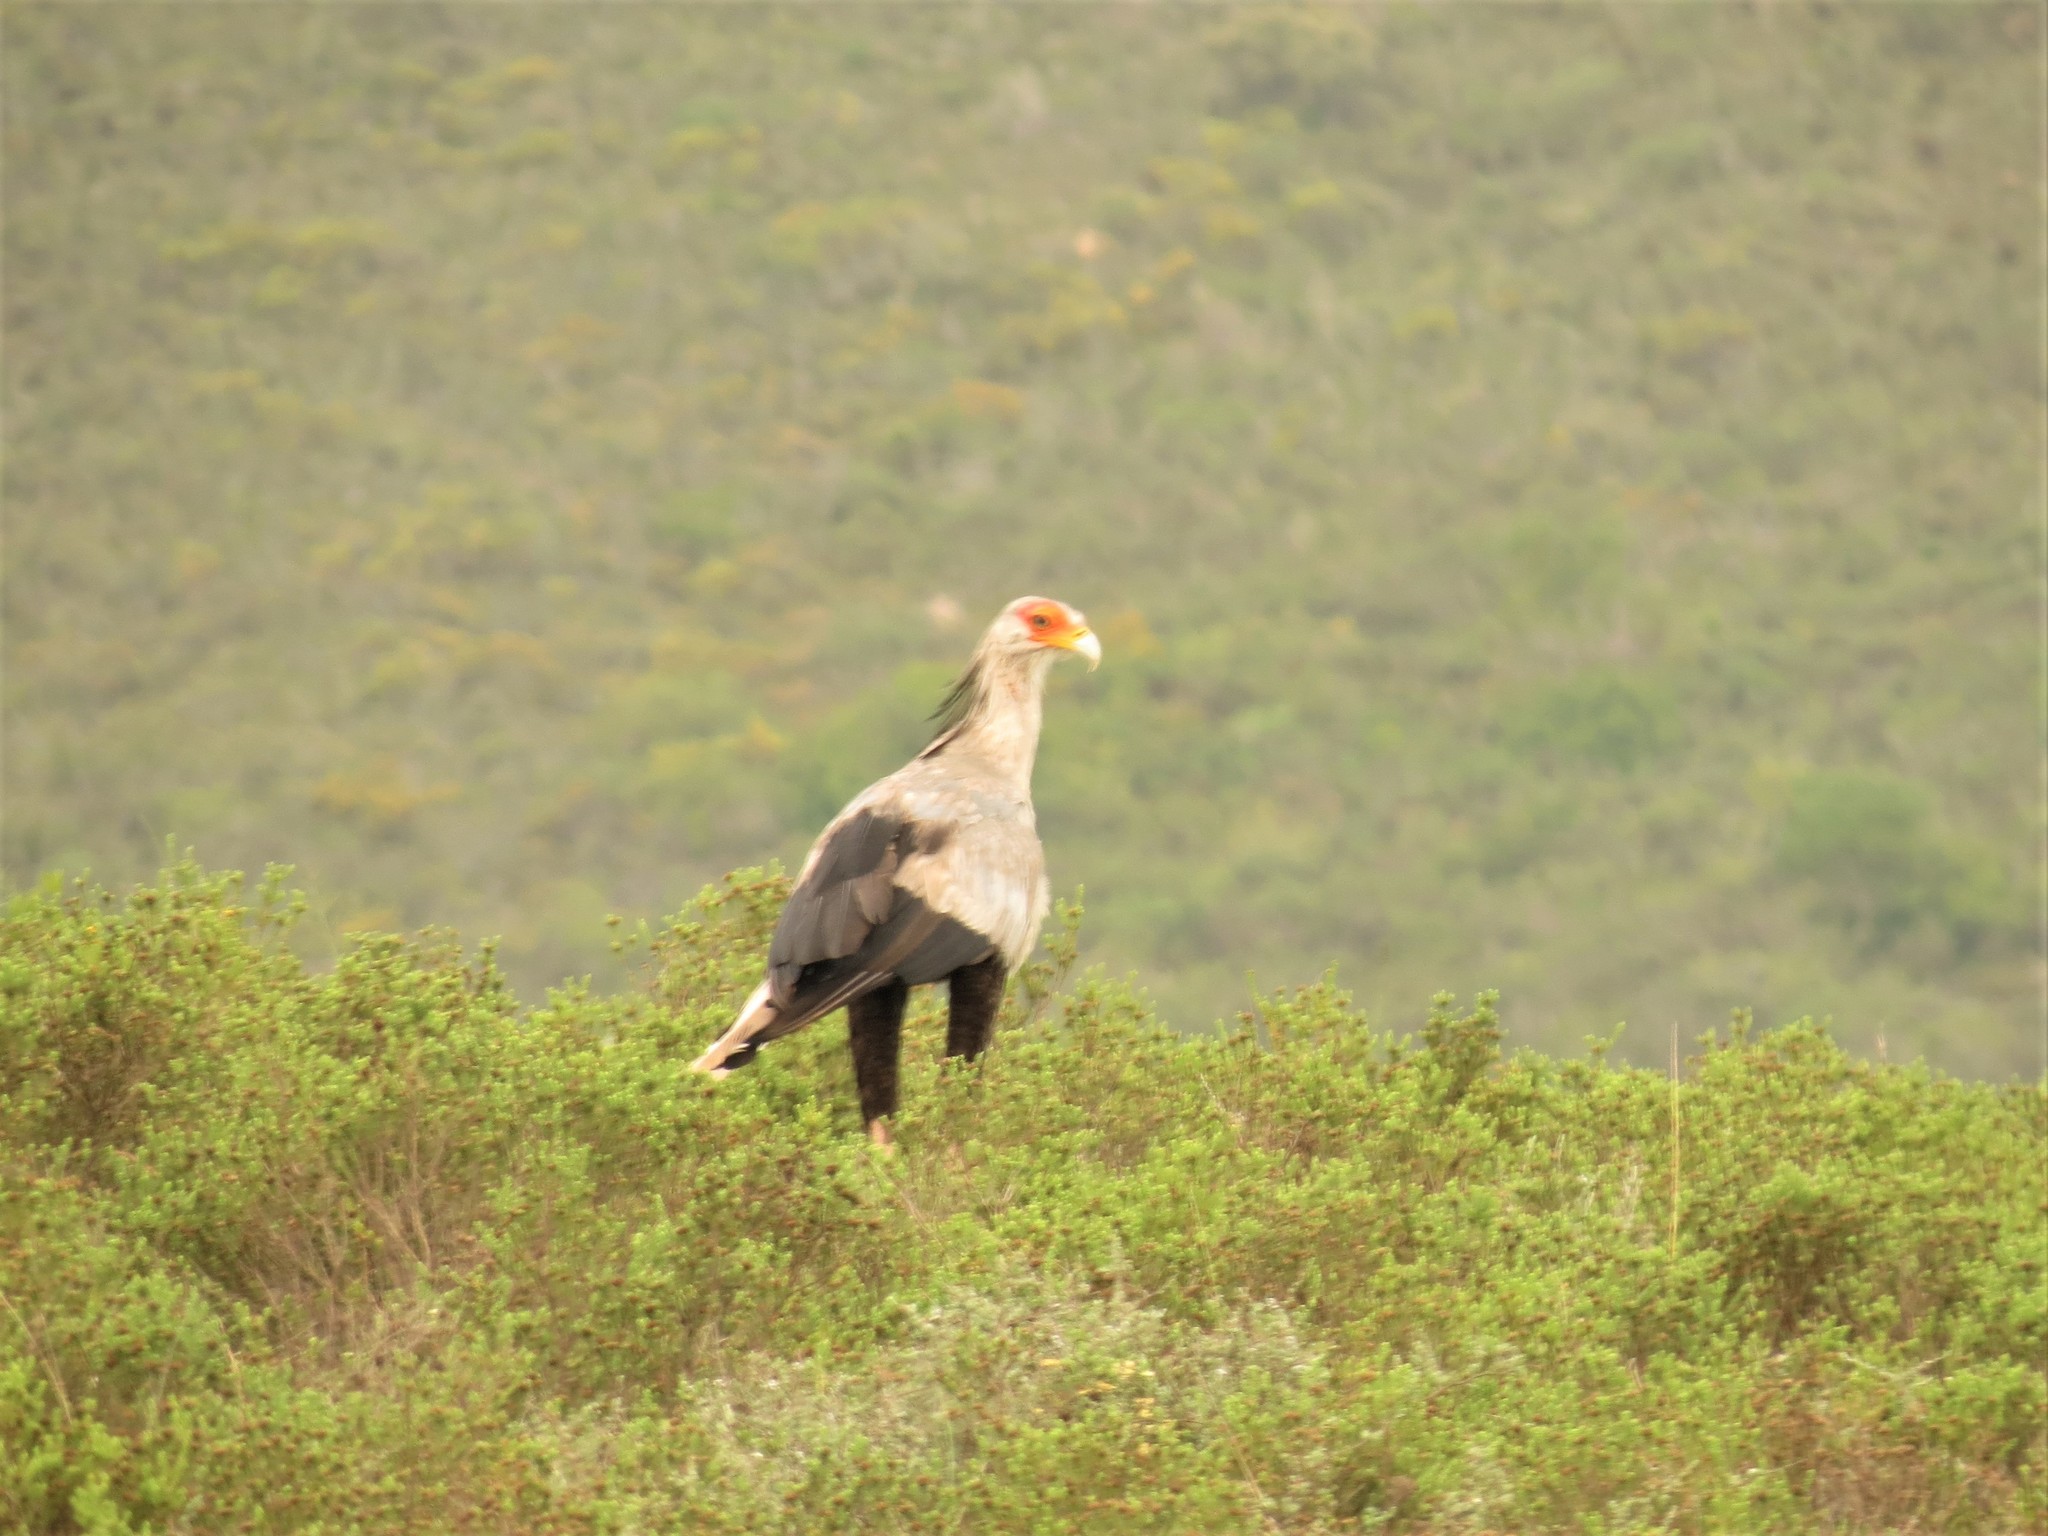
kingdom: Animalia
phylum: Chordata
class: Aves
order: Accipitriformes
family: Sagittariidae
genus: Sagittarius
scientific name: Sagittarius serpentarius
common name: Secretarybird
